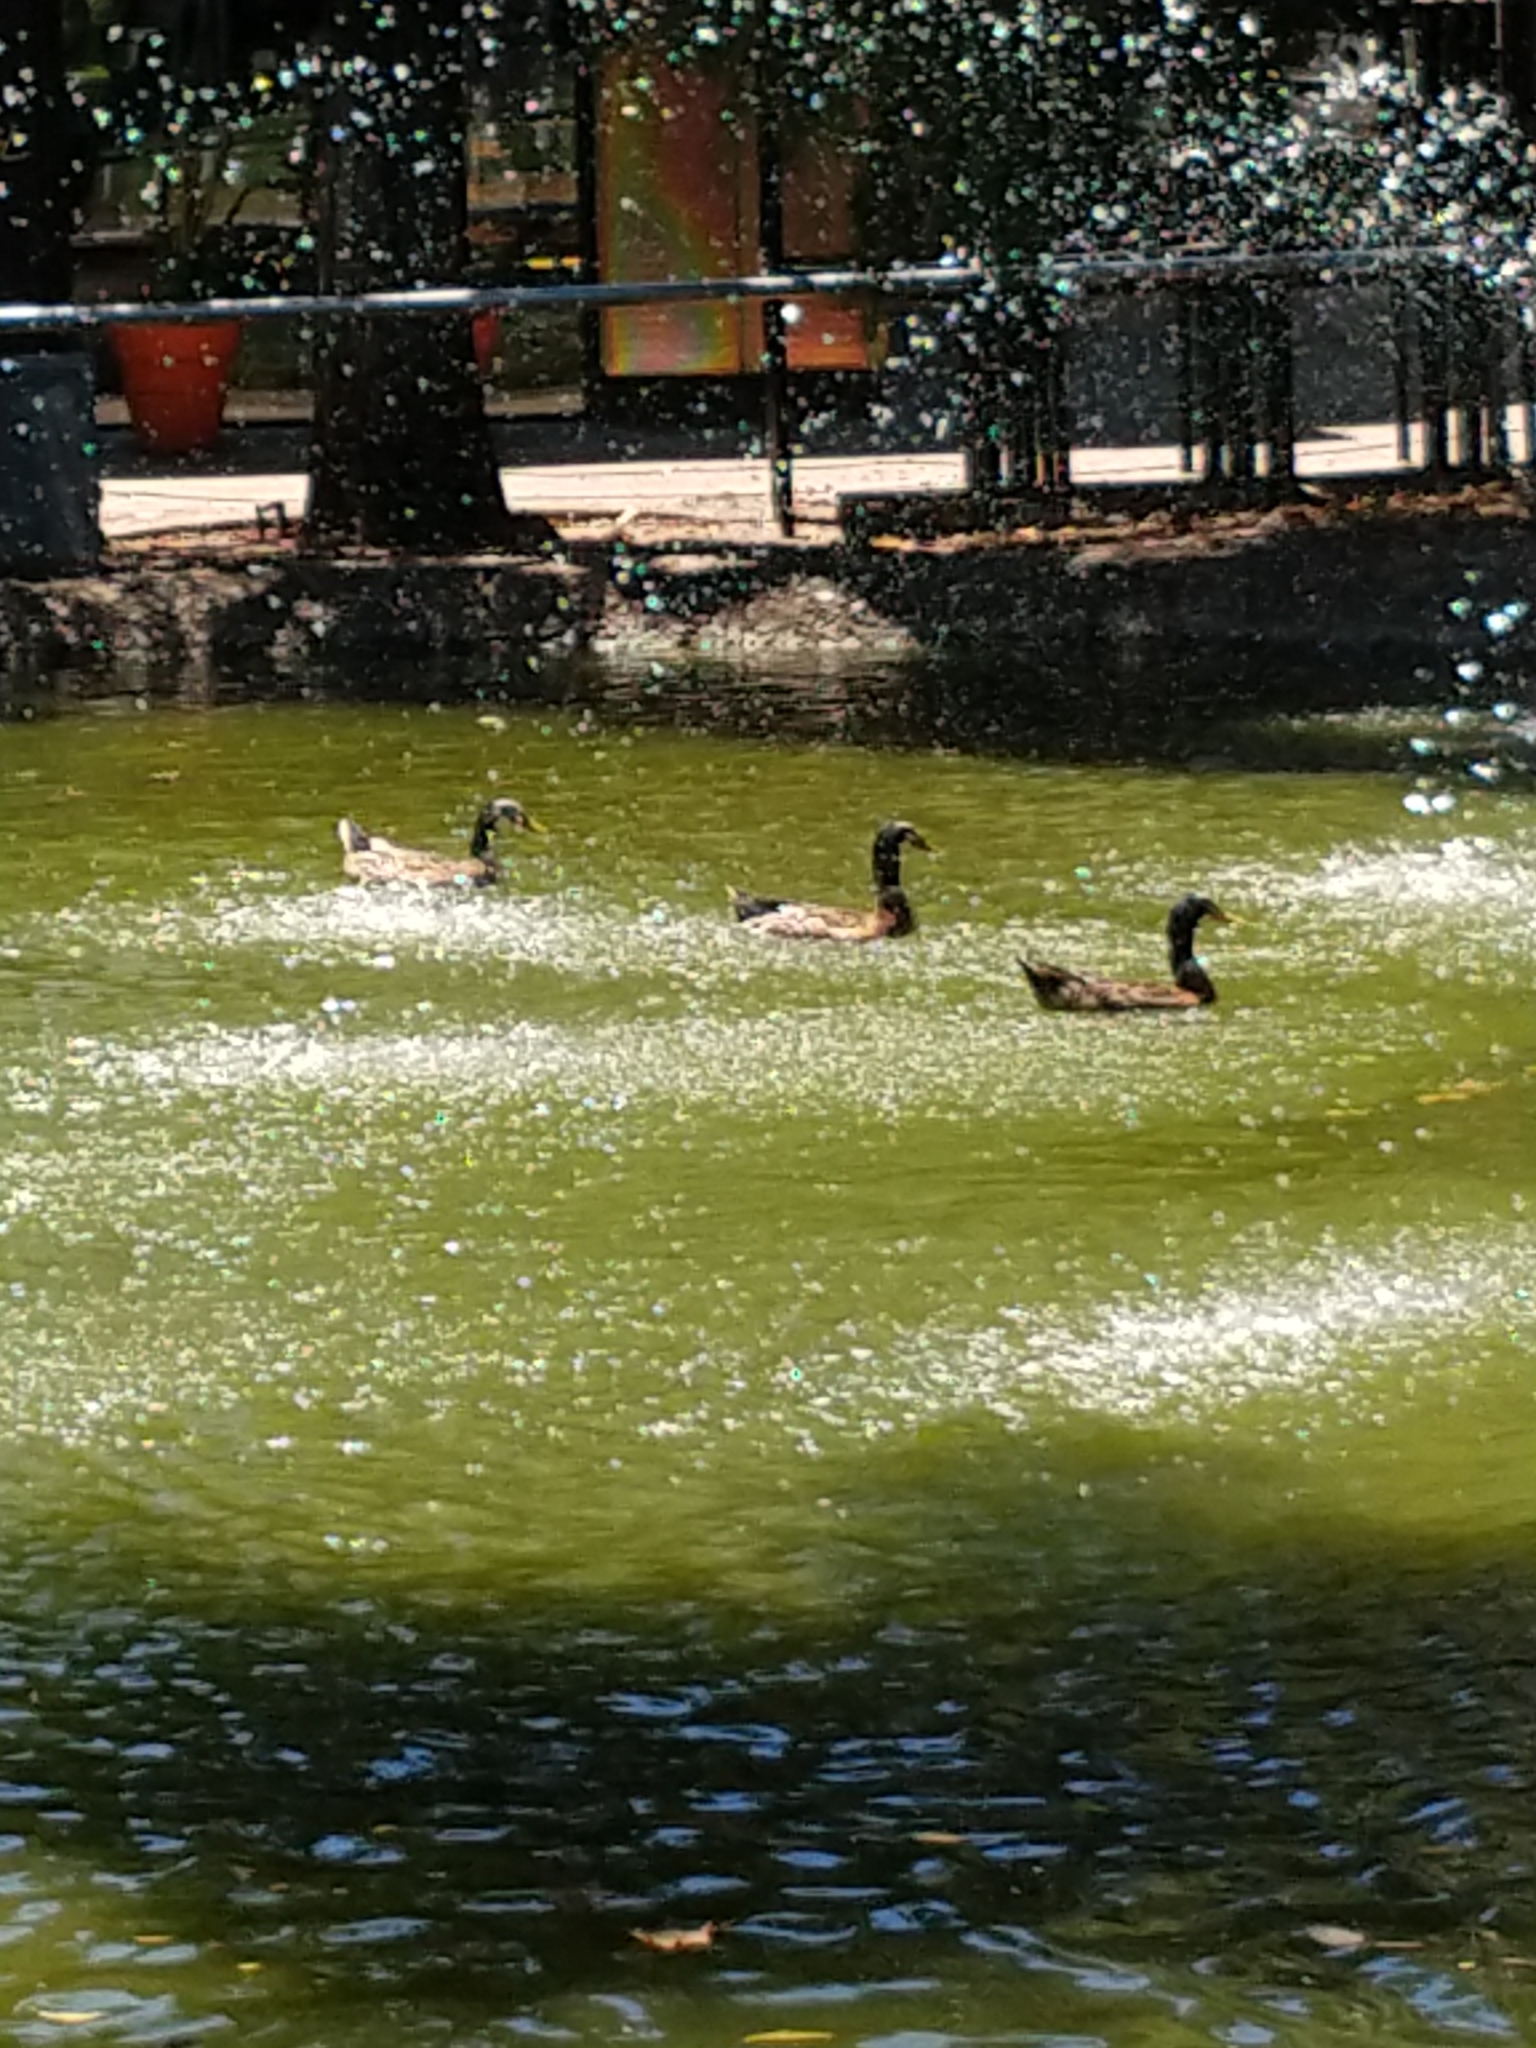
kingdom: Animalia
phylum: Chordata
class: Aves
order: Anseriformes
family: Anatidae
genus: Anas
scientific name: Anas platyrhynchos
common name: Mallard
